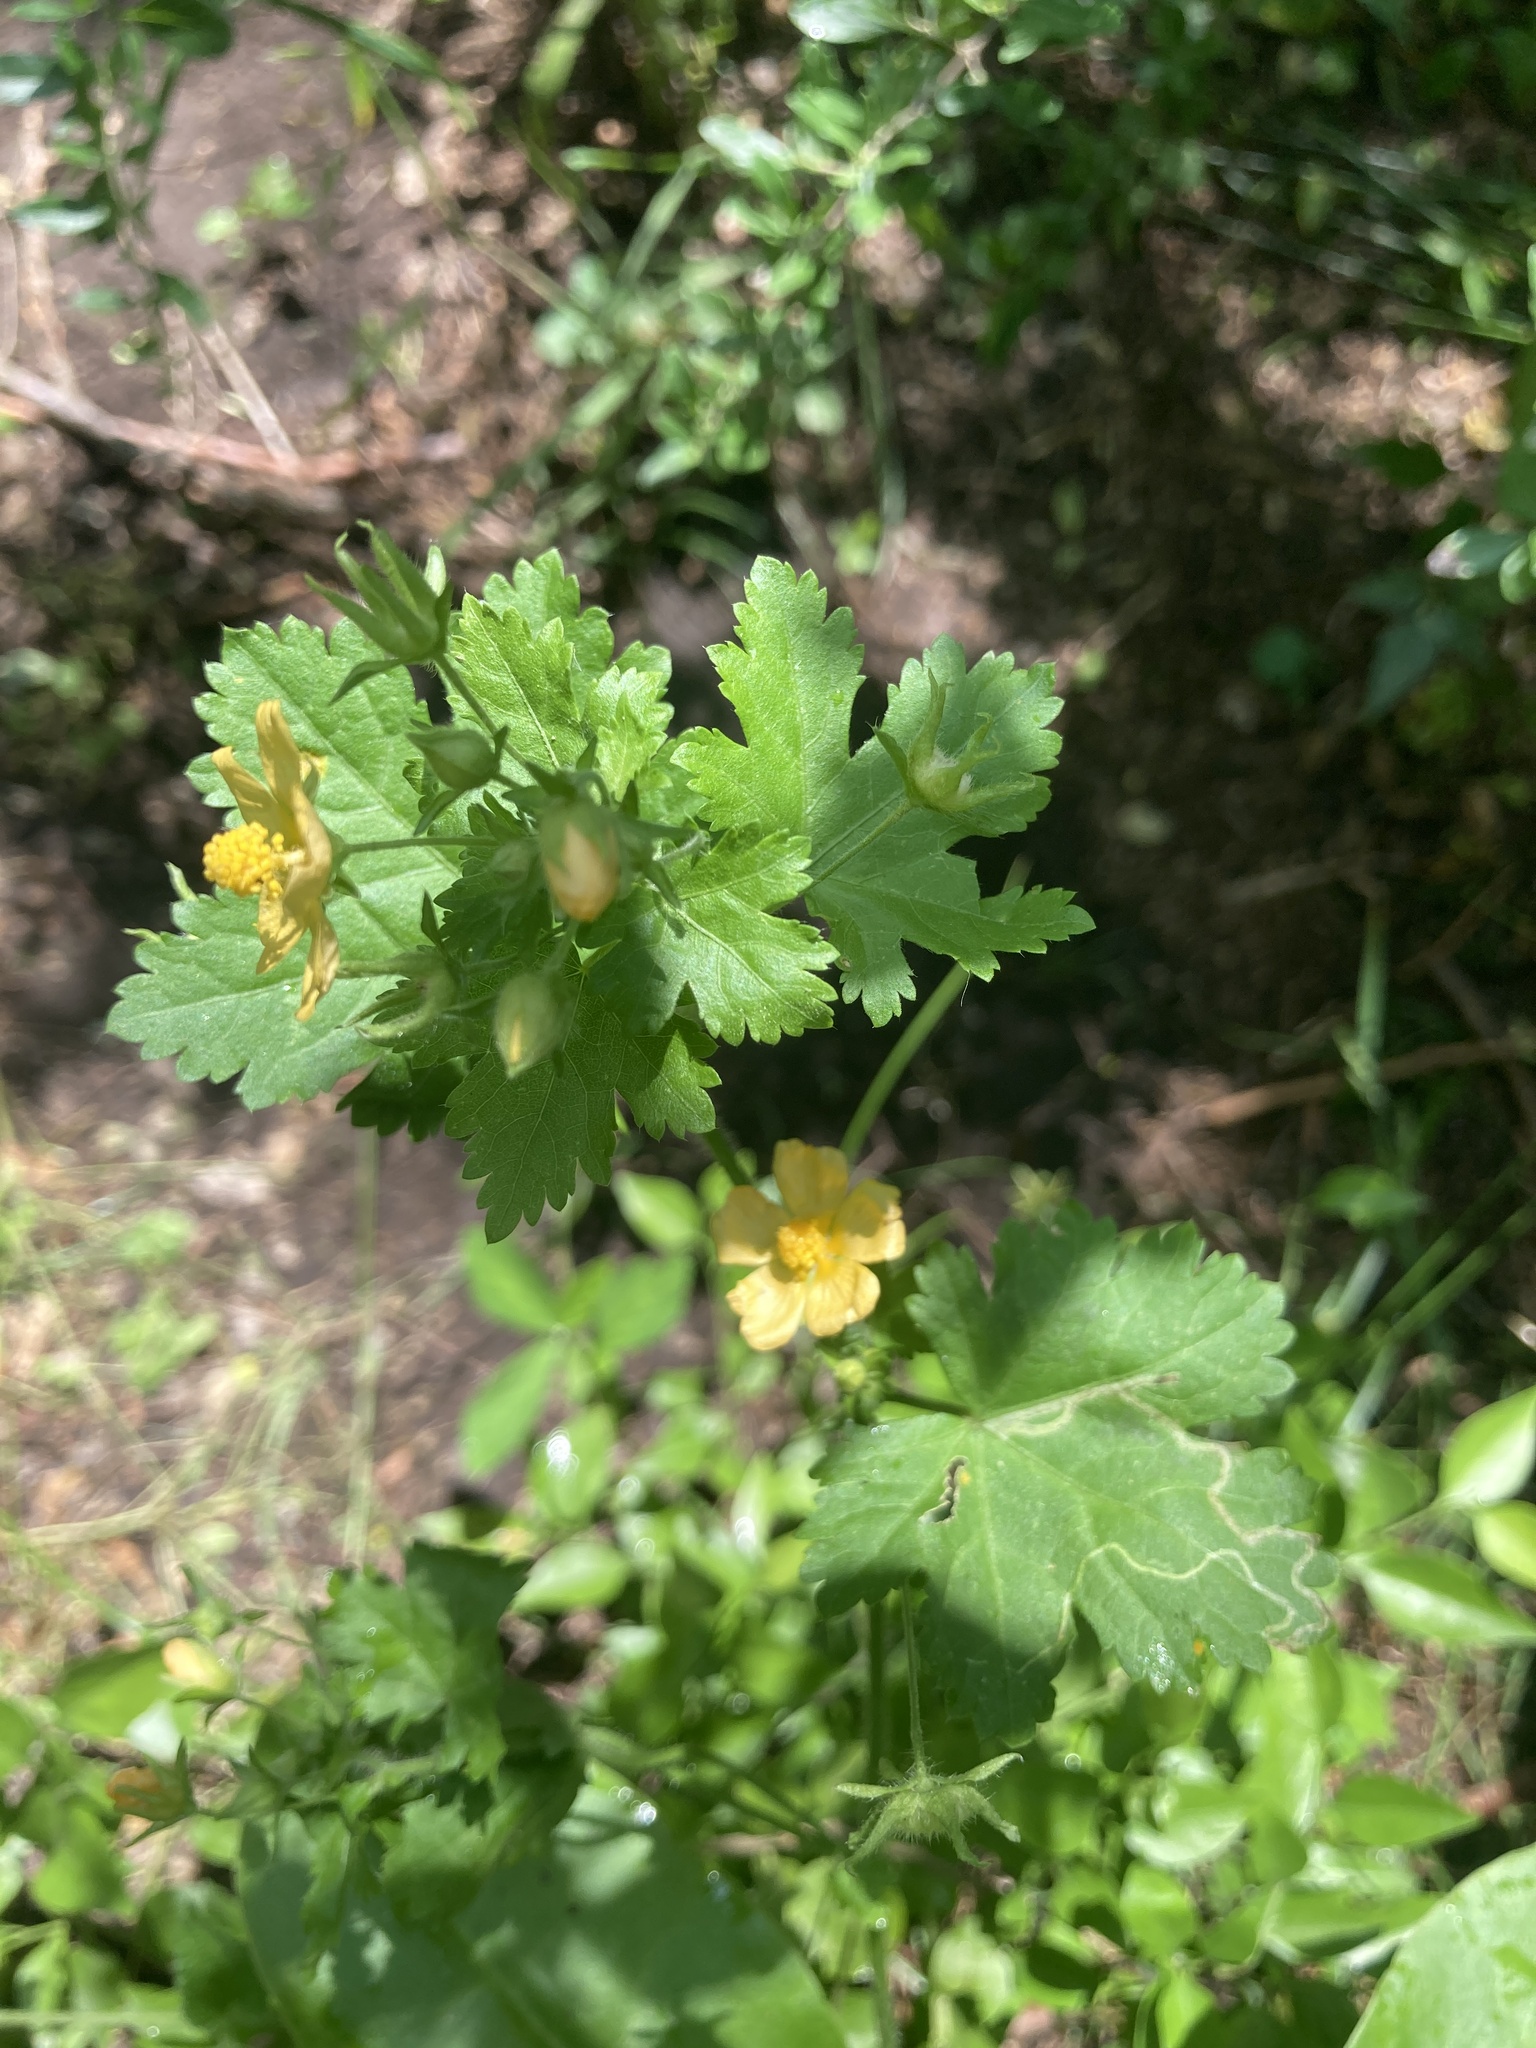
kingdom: Plantae
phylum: Tracheophyta
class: Magnoliopsida
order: Malvales
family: Malvaceae
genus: Modiolastrum
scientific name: Modiolastrum malvifolium
